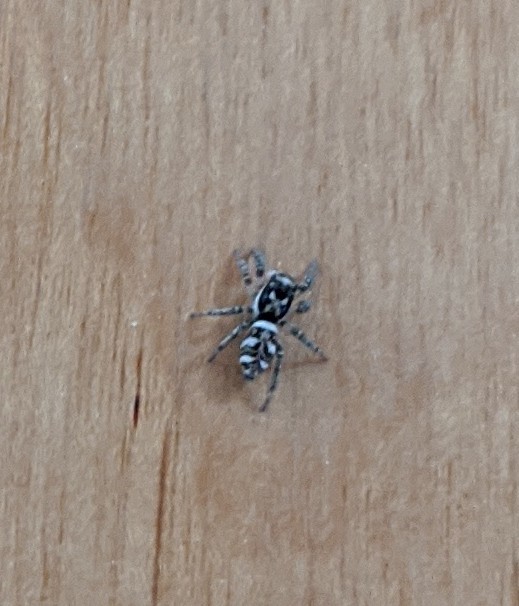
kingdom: Animalia
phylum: Arthropoda
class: Arachnida
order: Araneae
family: Salticidae
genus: Salticus
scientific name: Salticus scenicus
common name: Zebra jumper
